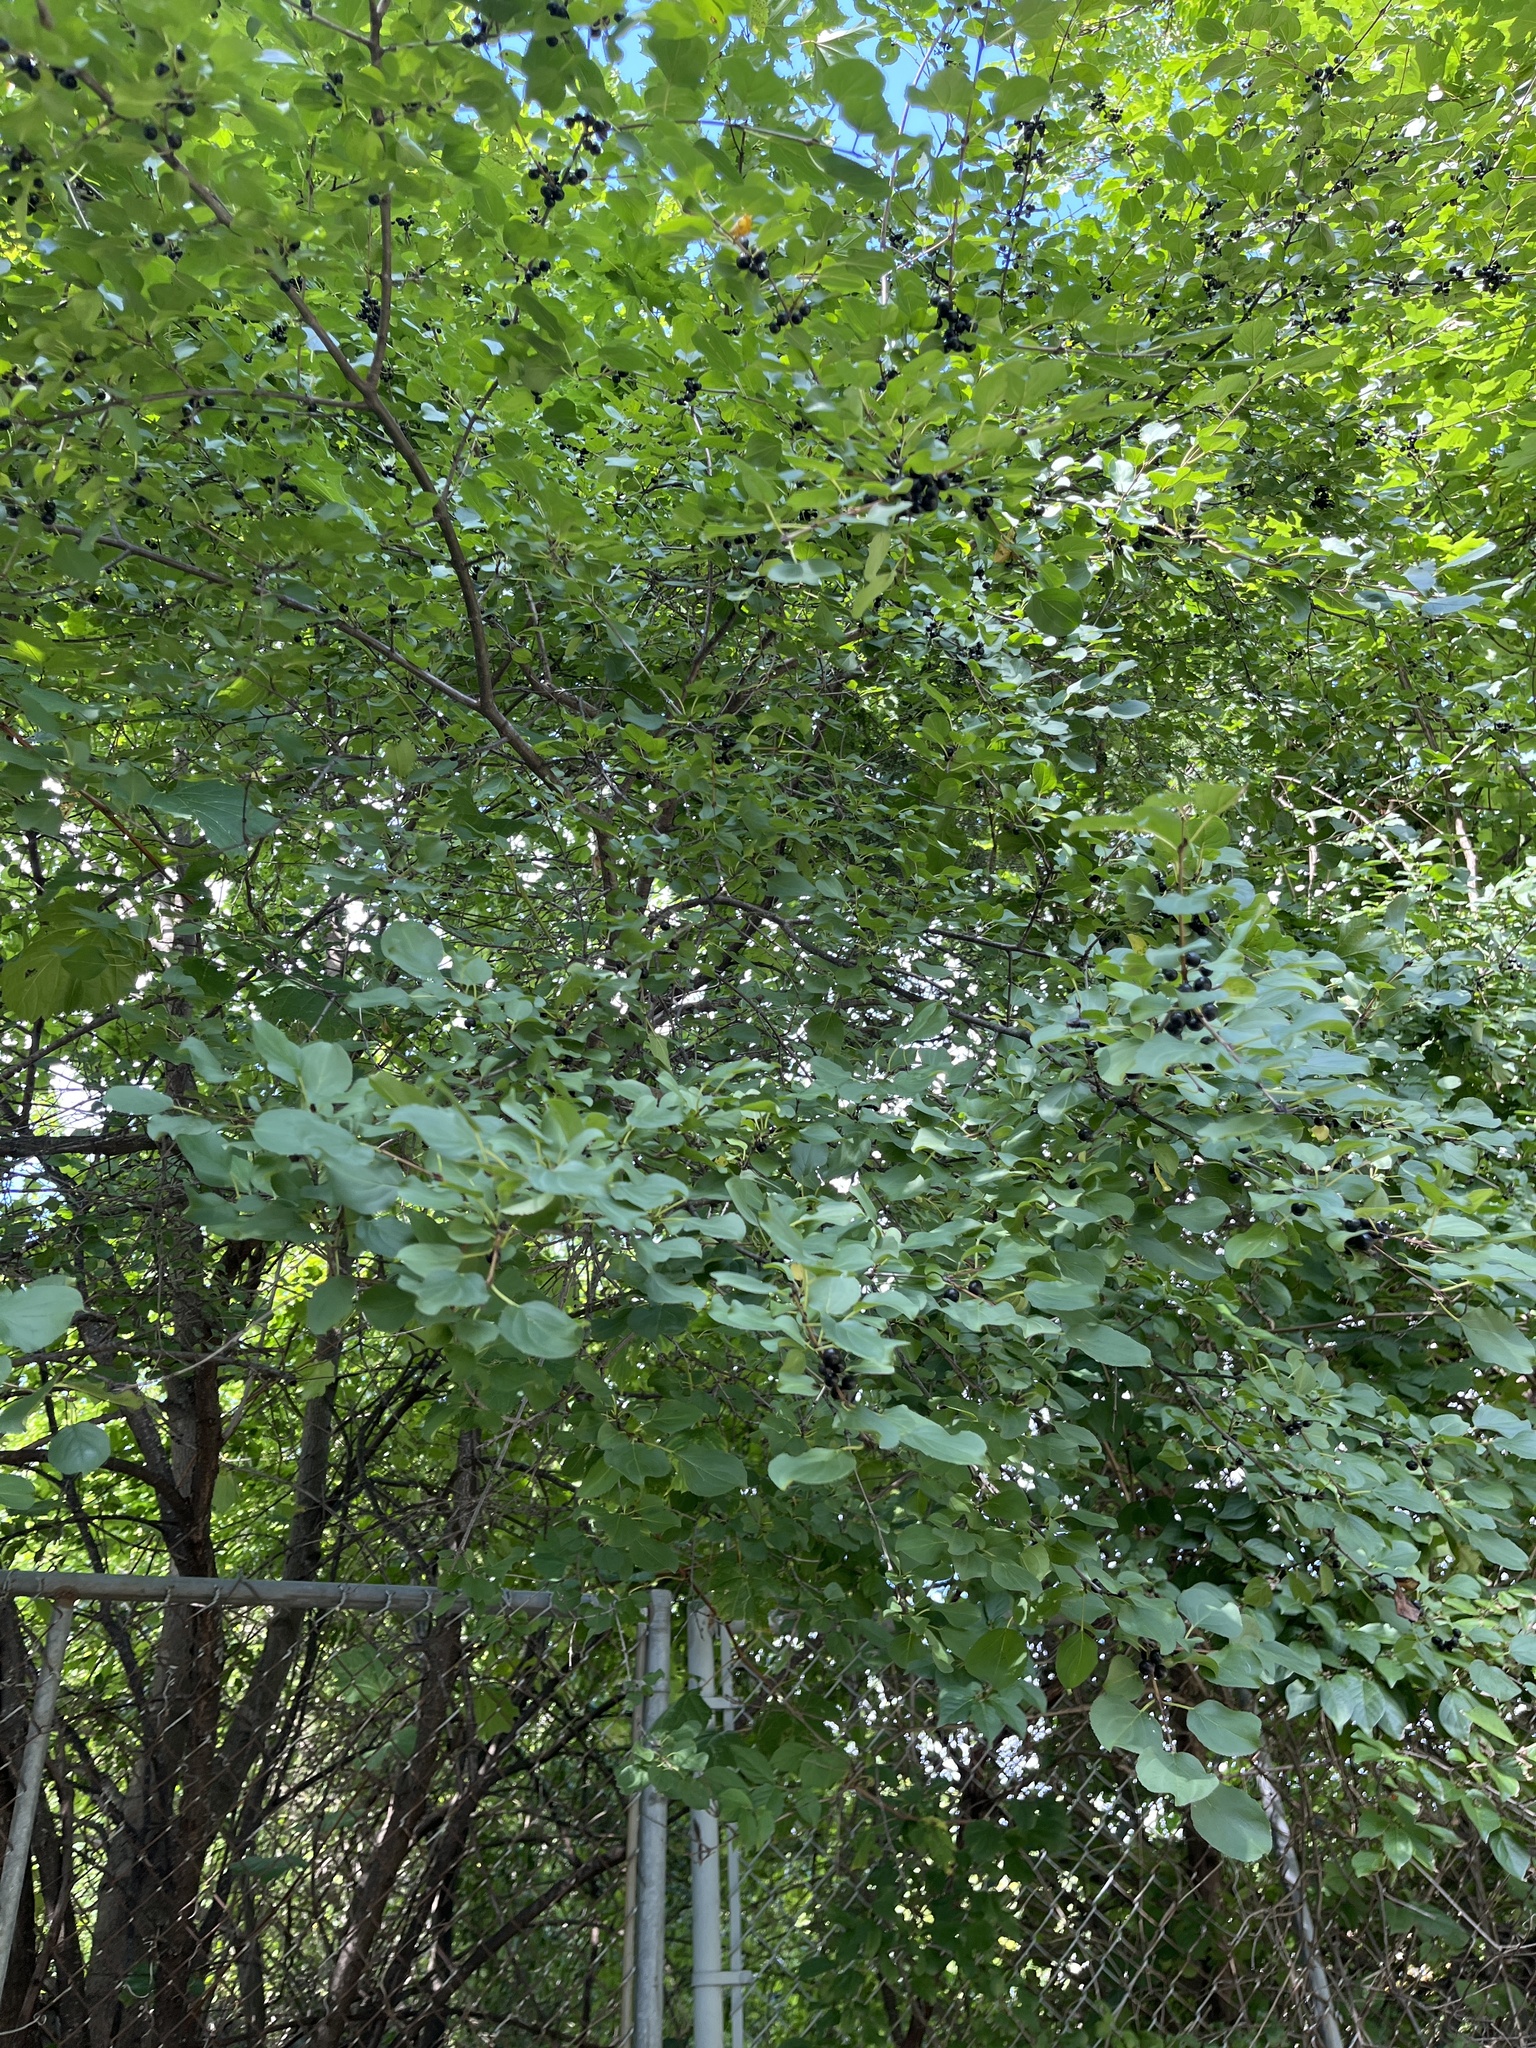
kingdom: Plantae
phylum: Tracheophyta
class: Magnoliopsida
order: Rosales
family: Rhamnaceae
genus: Rhamnus
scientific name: Rhamnus cathartica
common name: Common buckthorn
